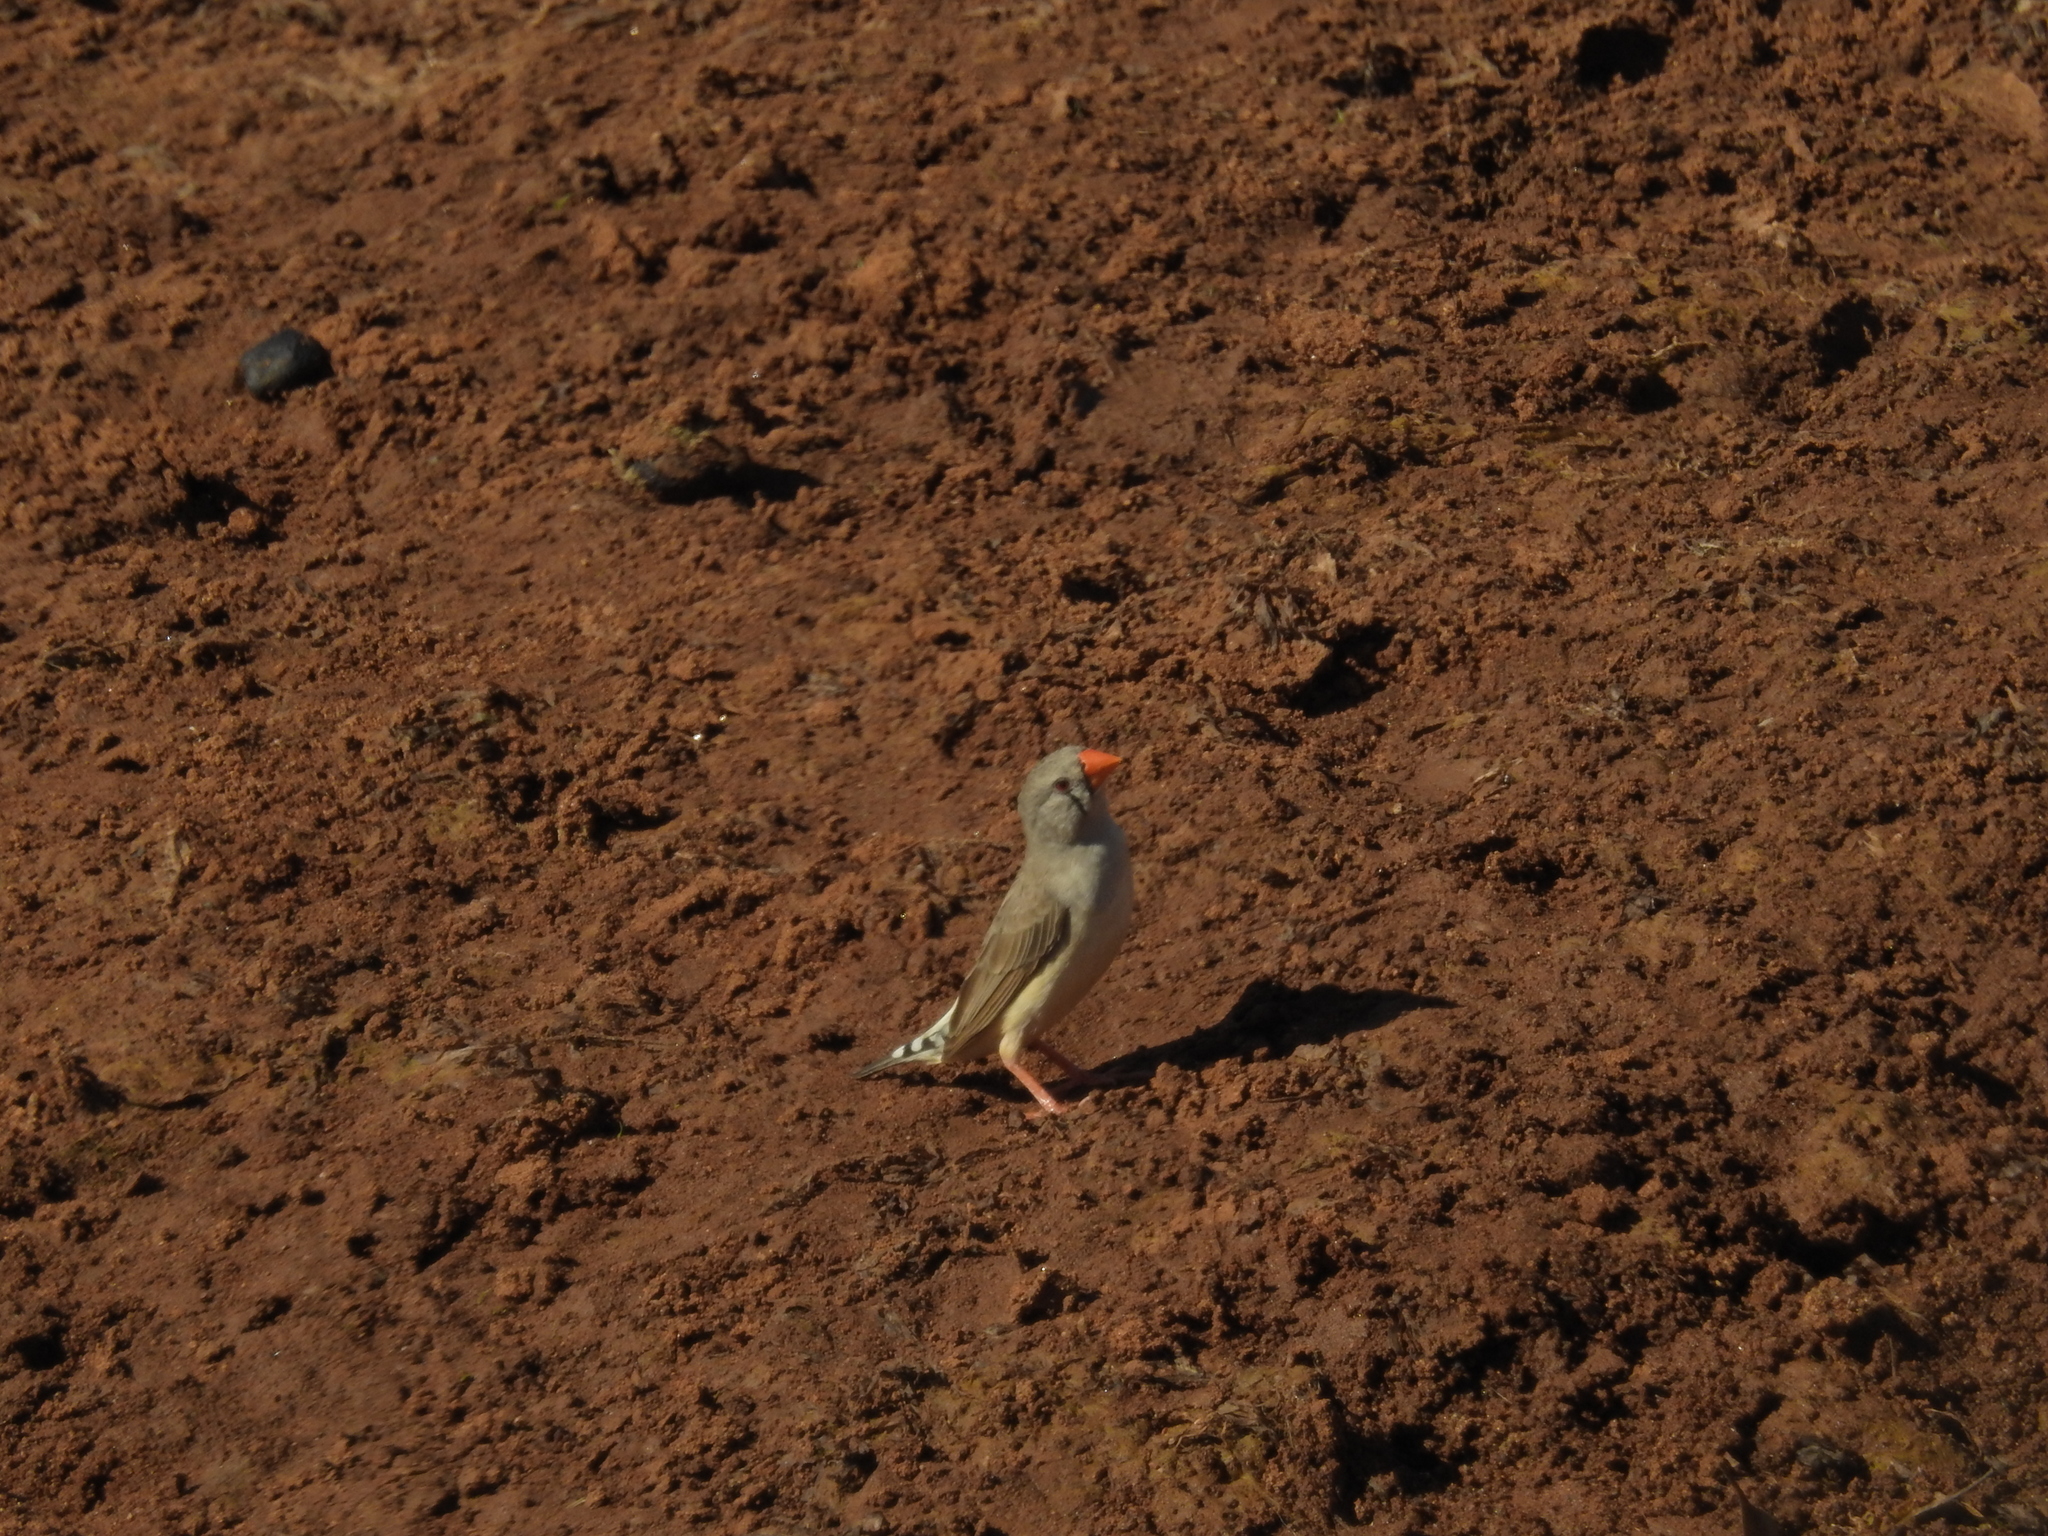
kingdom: Animalia
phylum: Chordata
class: Aves
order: Passeriformes
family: Estrildidae
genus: Taeniopygia
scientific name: Taeniopygia guttata
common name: Zebra finch
